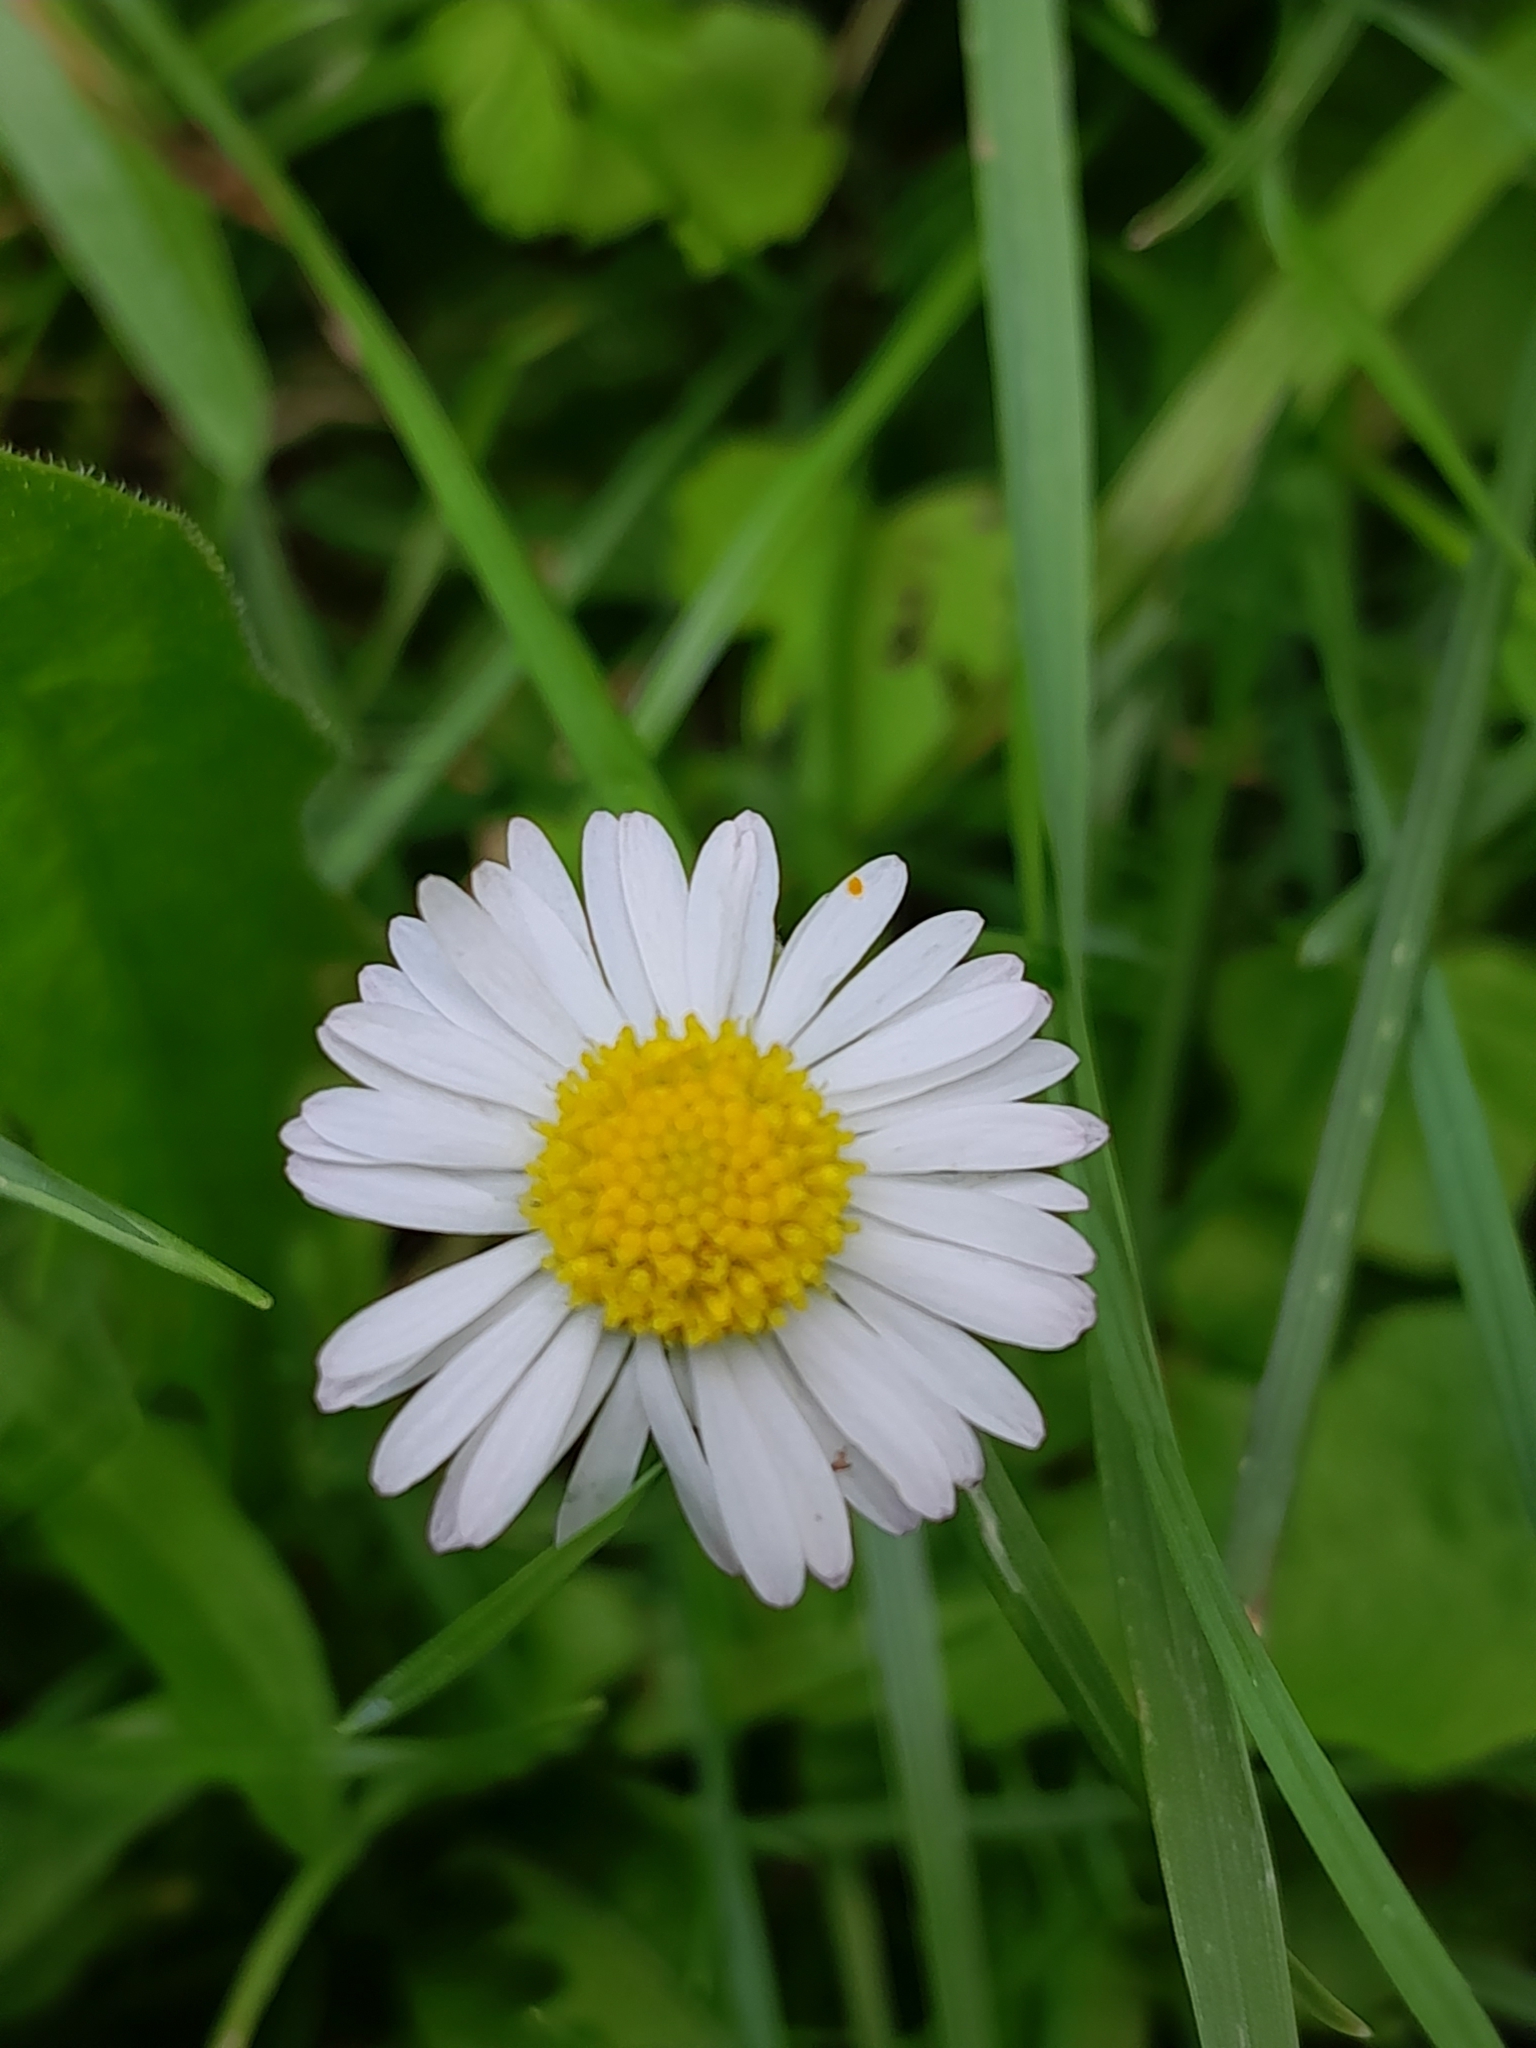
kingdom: Plantae
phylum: Tracheophyta
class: Magnoliopsida
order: Asterales
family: Asteraceae
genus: Bellis
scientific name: Bellis perennis
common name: Lawndaisy
